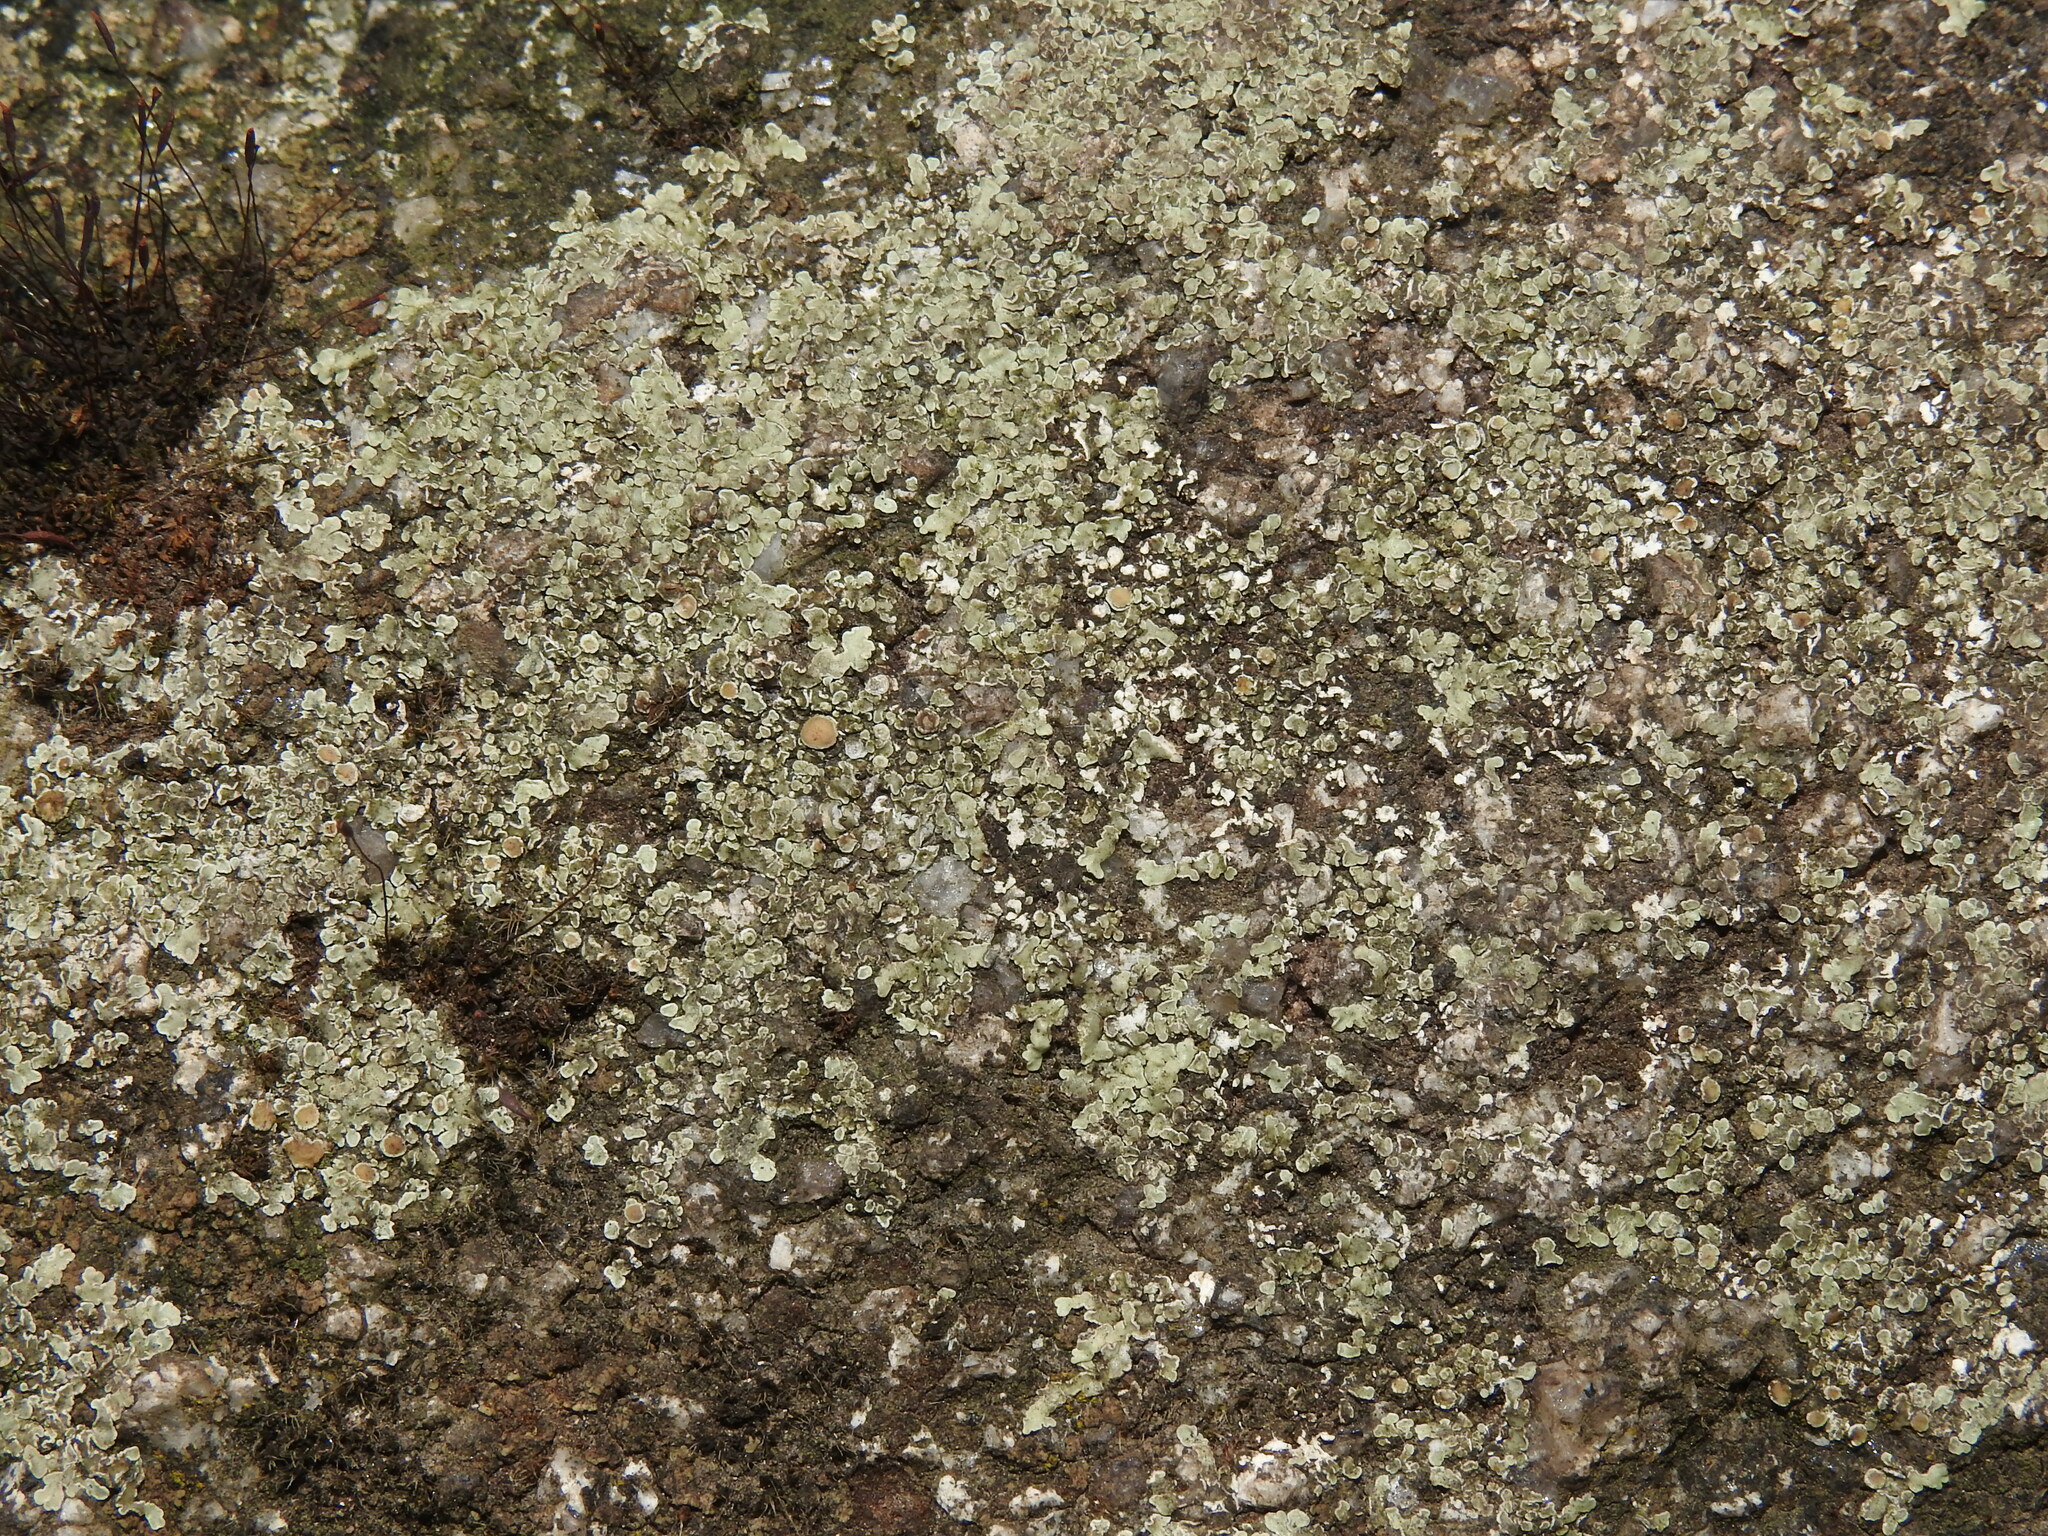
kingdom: Fungi
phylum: Ascomycota
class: Lecanoromycetes
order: Lecanorales
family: Lecanoraceae
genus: Protoparmeliopsis
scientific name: Protoparmeliopsis muralis
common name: Stonewall rim lichen
